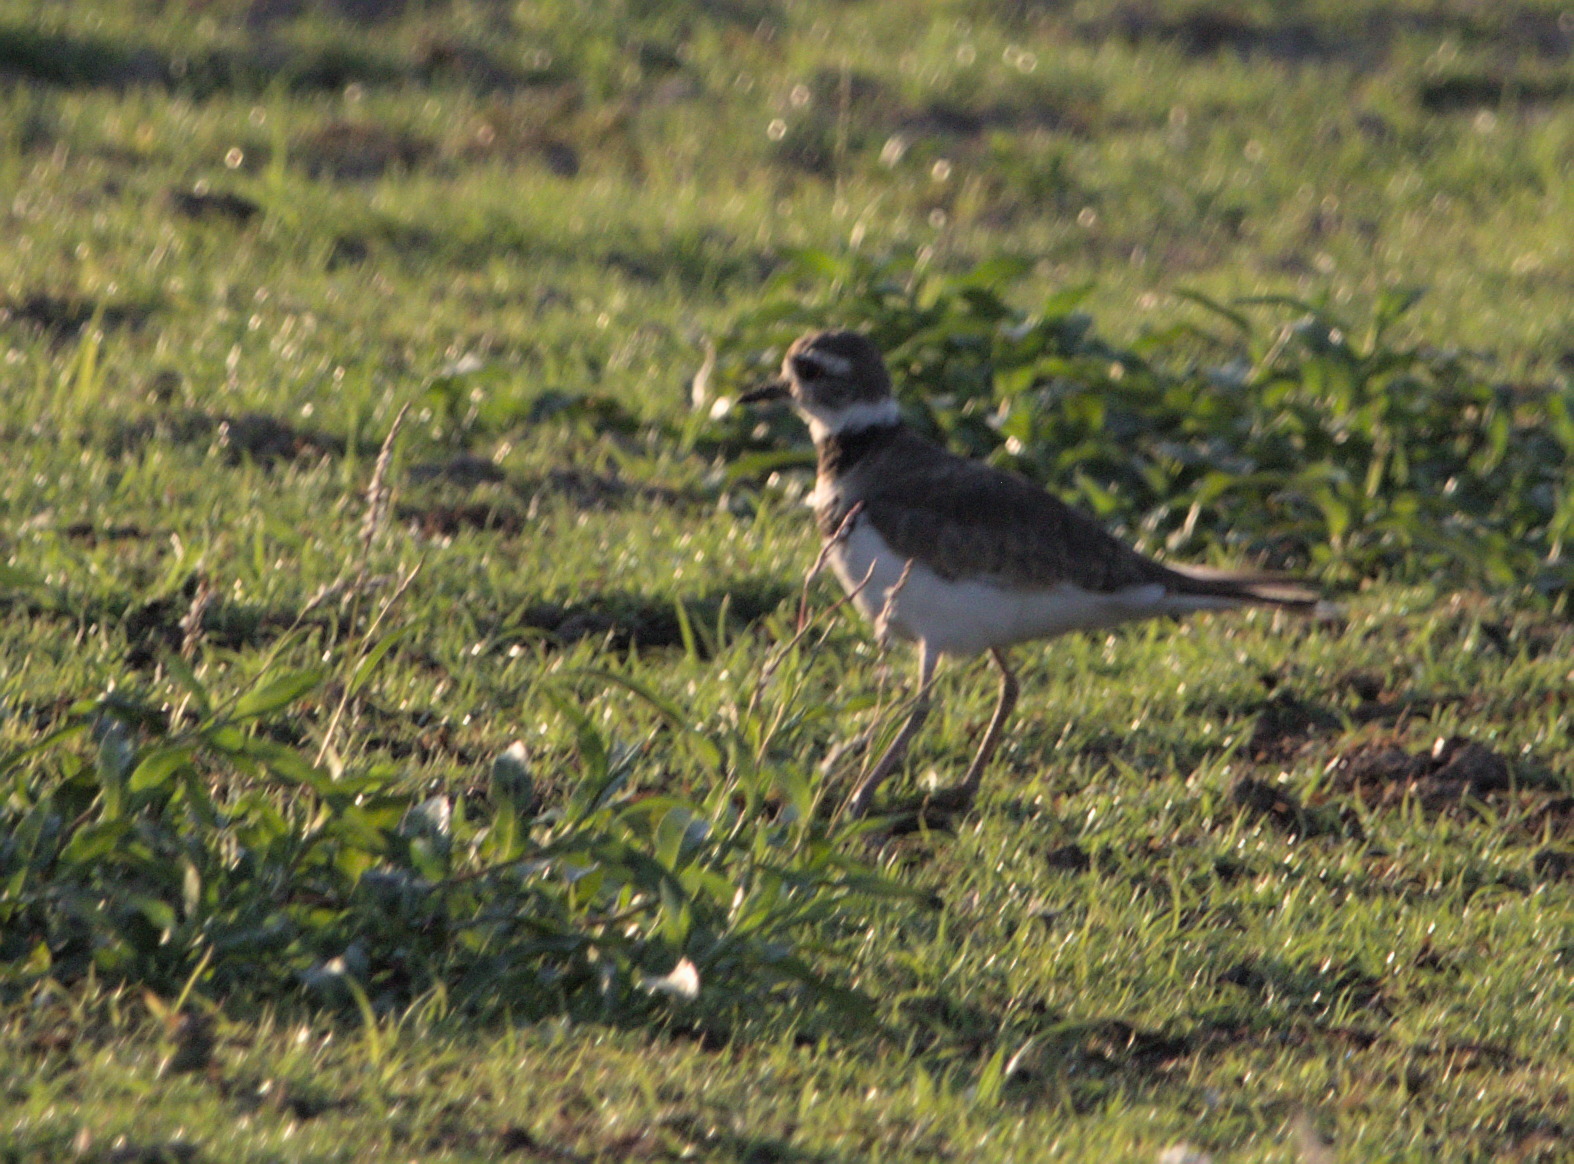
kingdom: Animalia
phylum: Chordata
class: Aves
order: Charadriiformes
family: Charadriidae
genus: Charadrius
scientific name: Charadrius vociferus
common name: Killdeer
